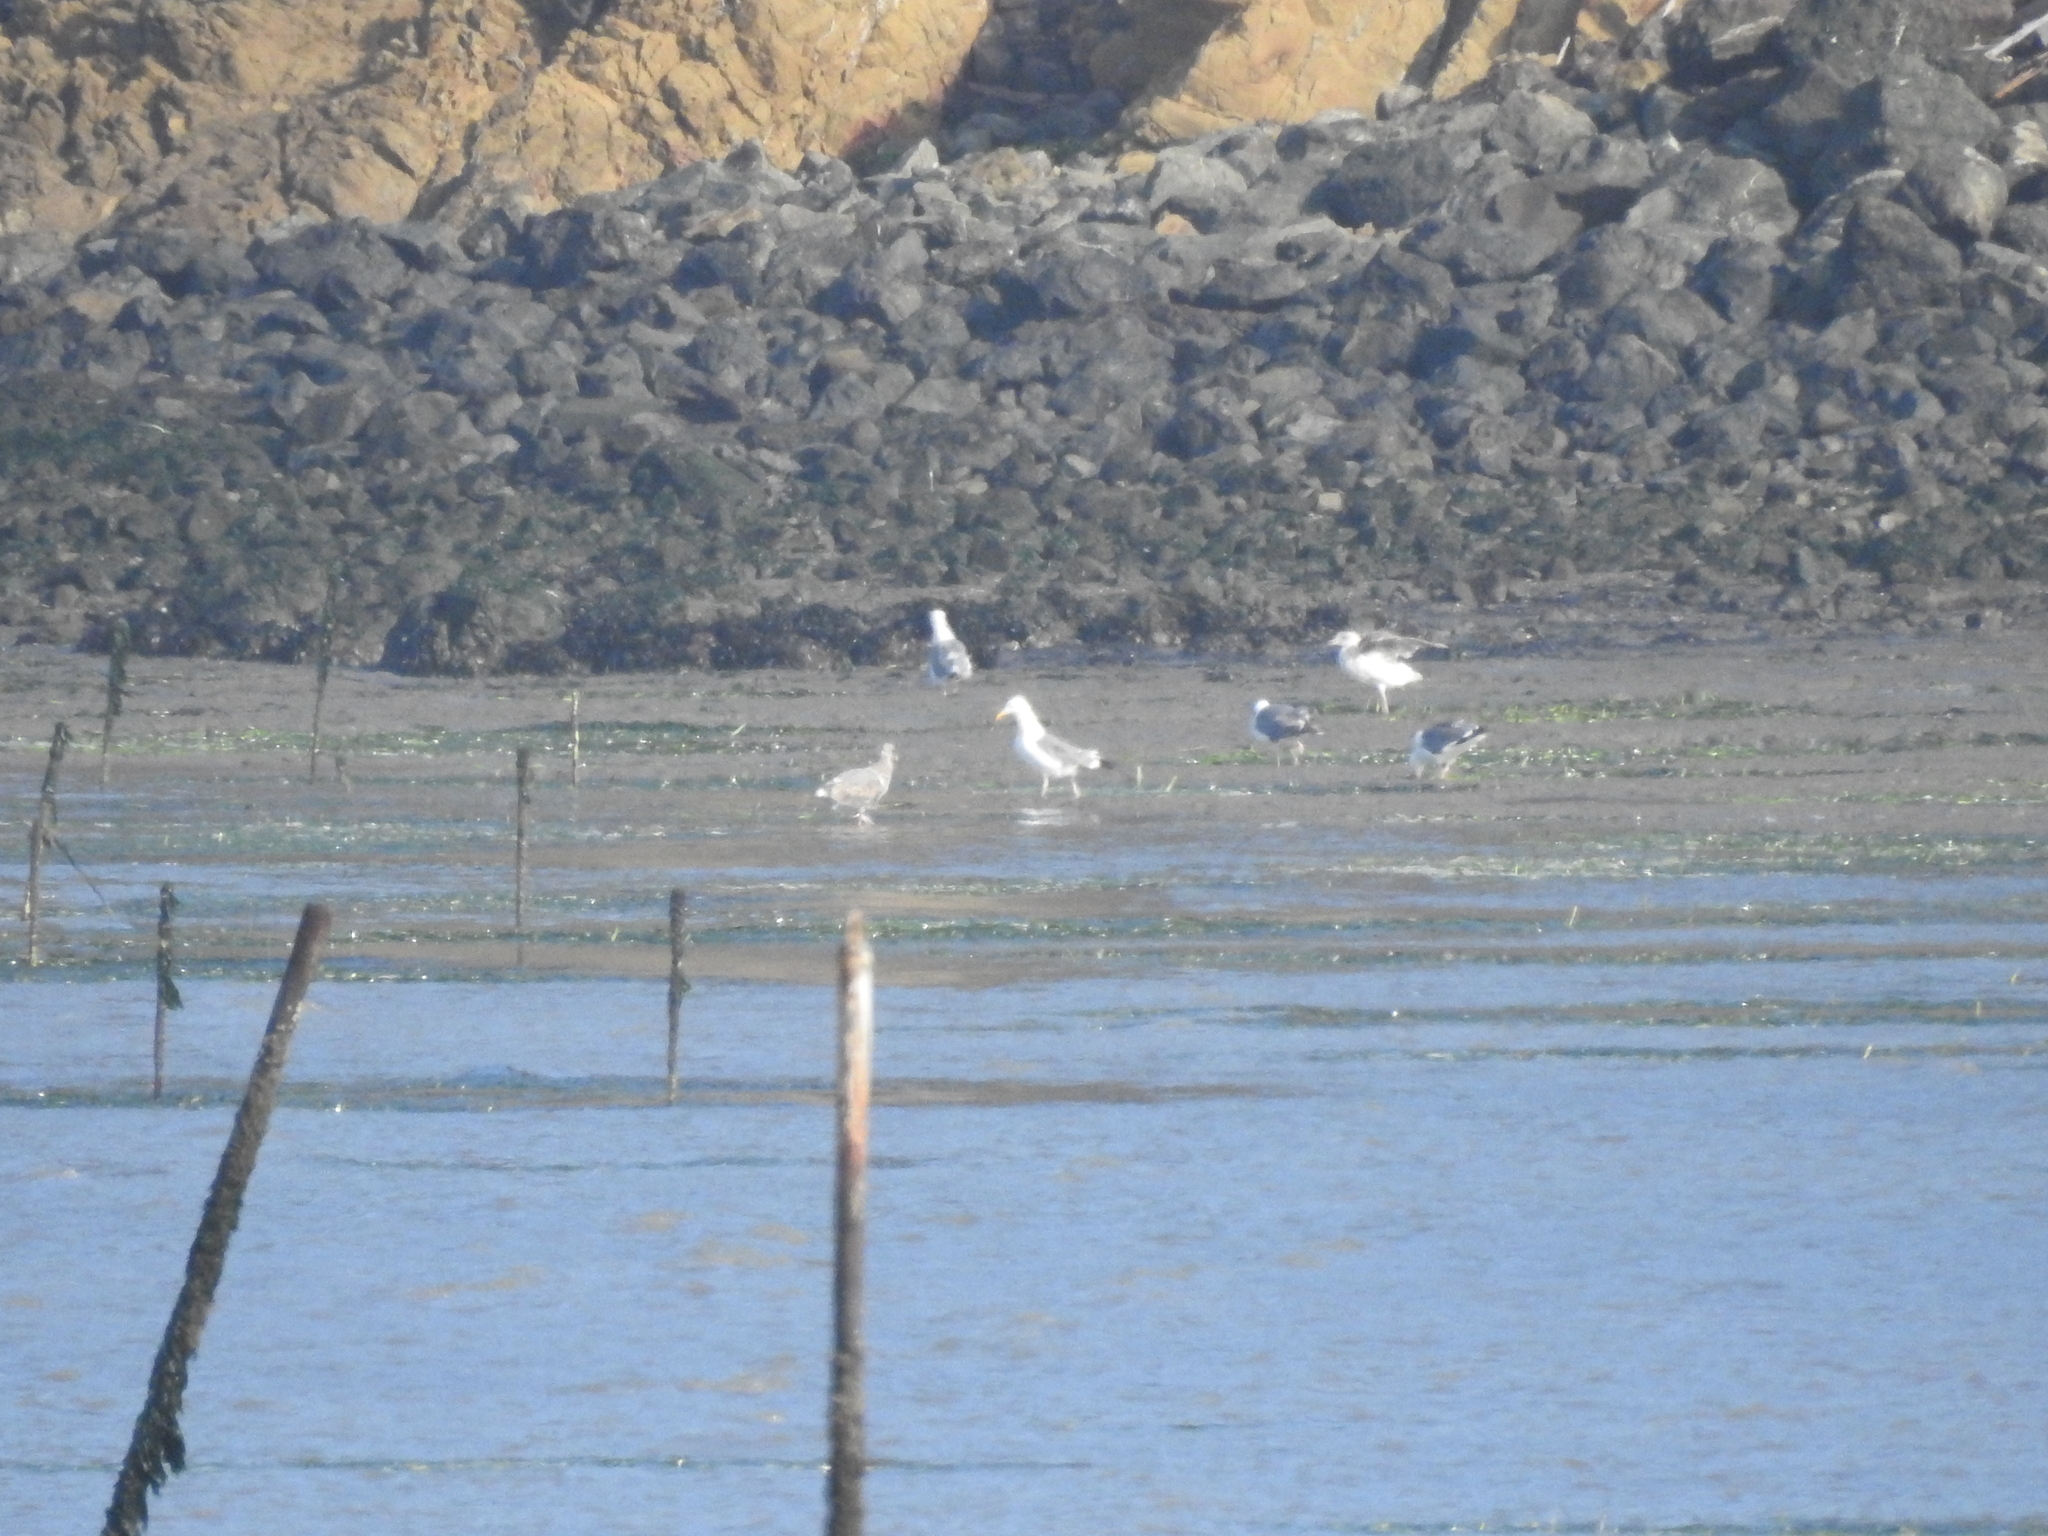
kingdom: Animalia
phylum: Chordata
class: Aves
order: Charadriiformes
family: Laridae
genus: Larus
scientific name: Larus occidentalis
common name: Western gull
